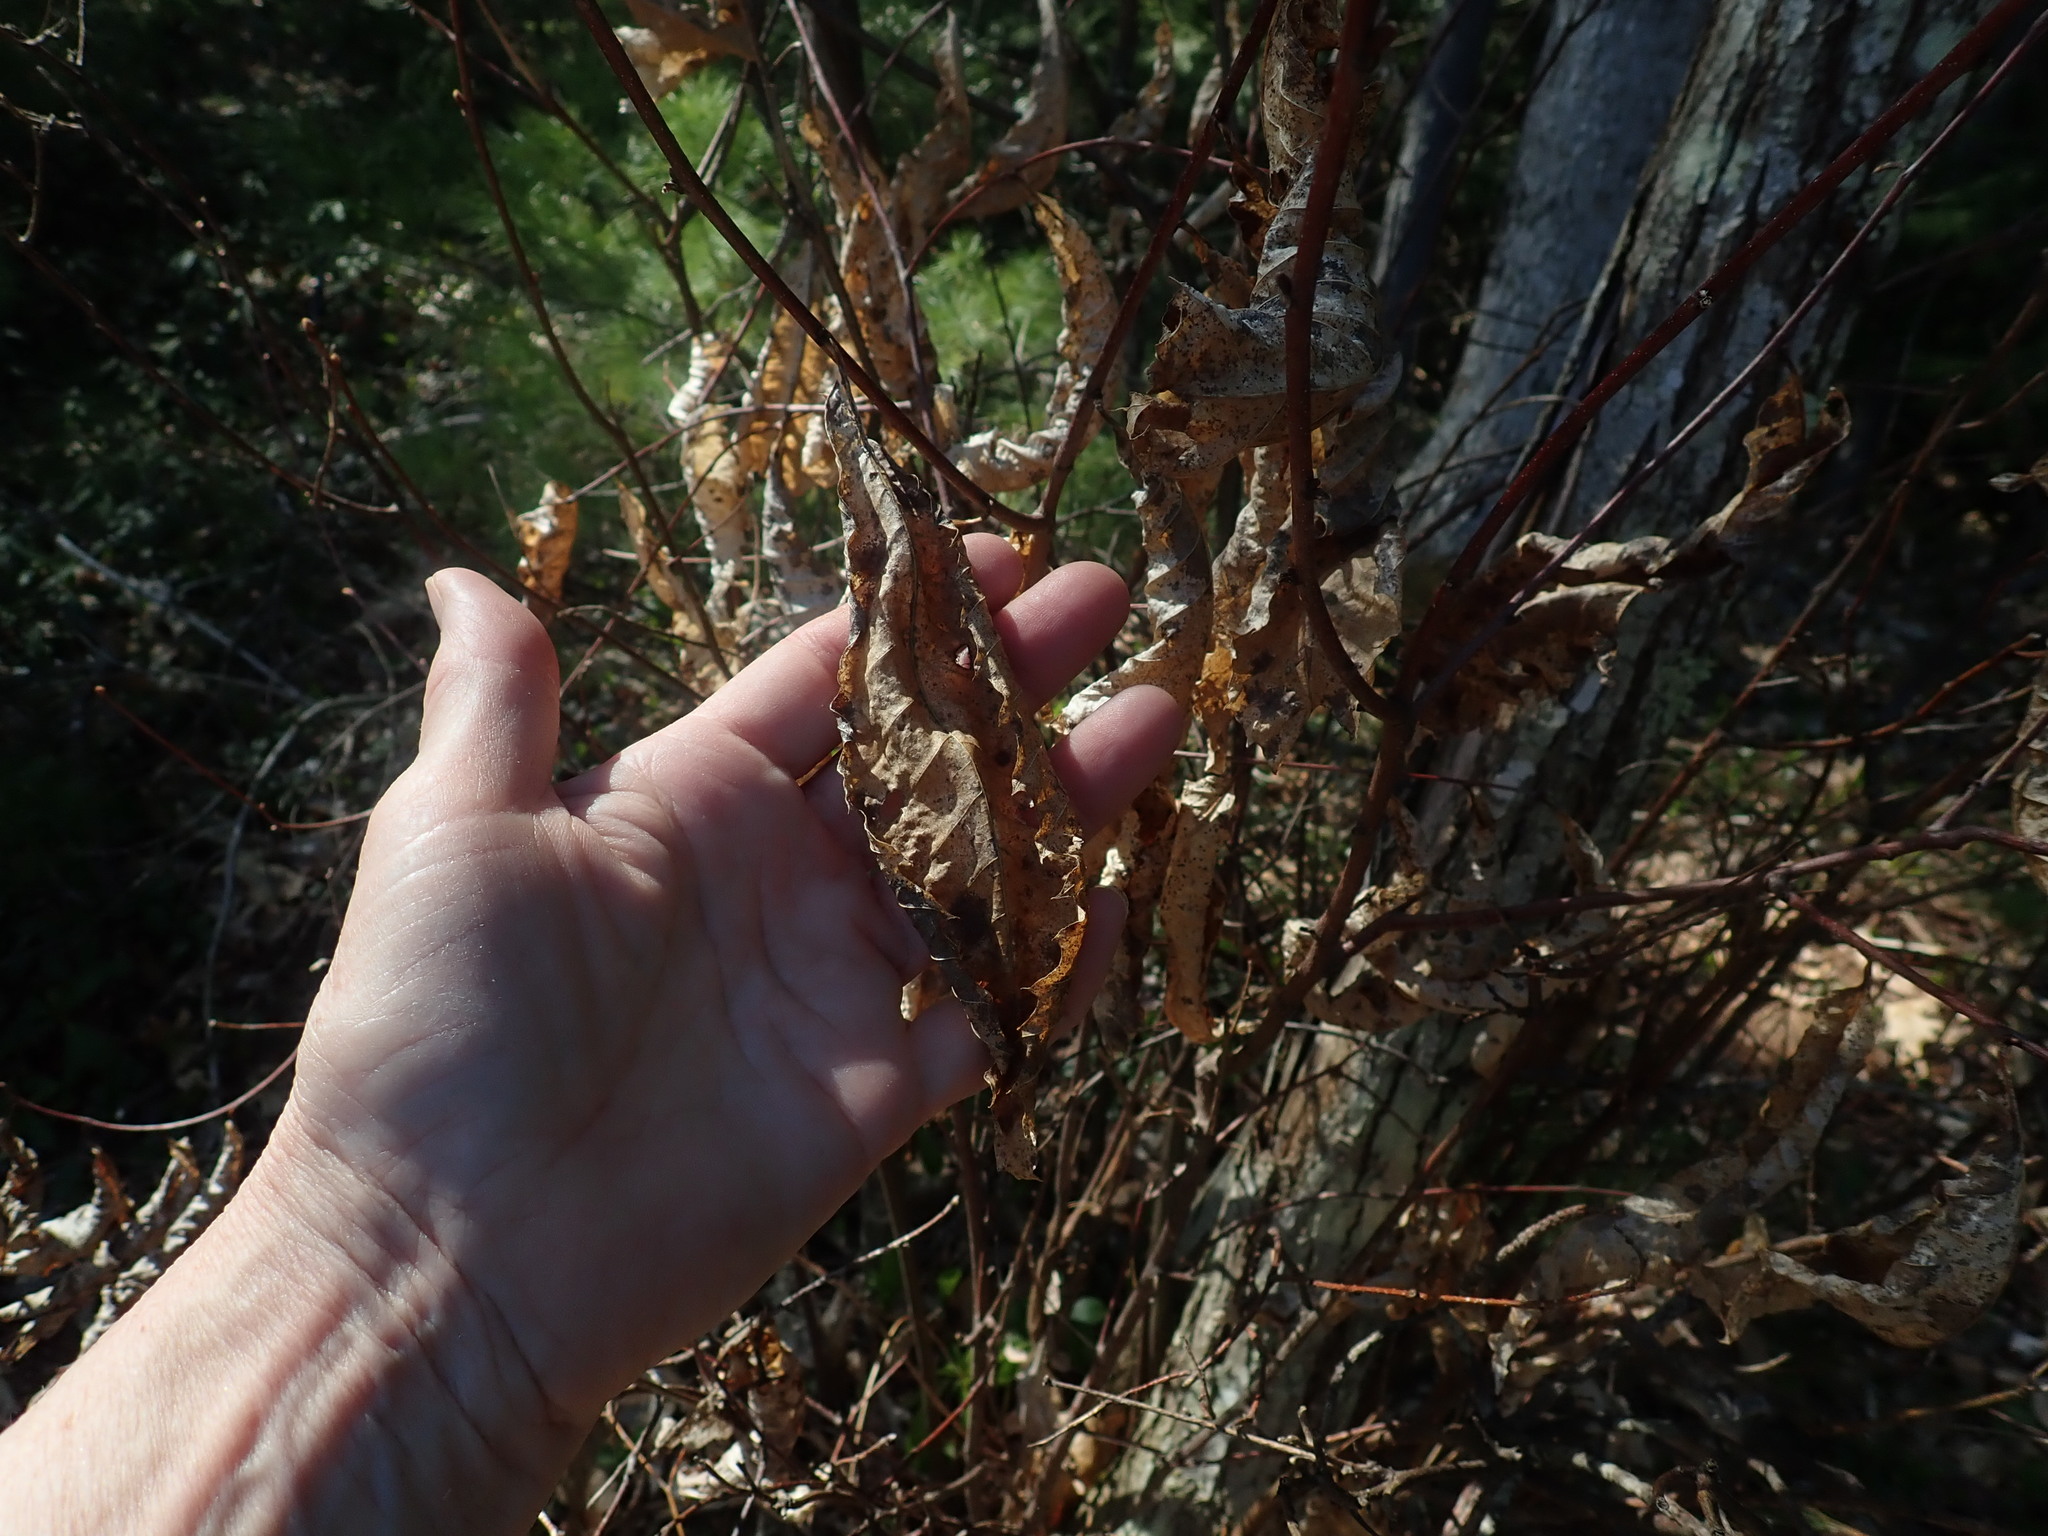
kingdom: Plantae
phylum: Tracheophyta
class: Magnoliopsida
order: Fagales
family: Fagaceae
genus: Castanea
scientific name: Castanea dentata
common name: American chestnut
